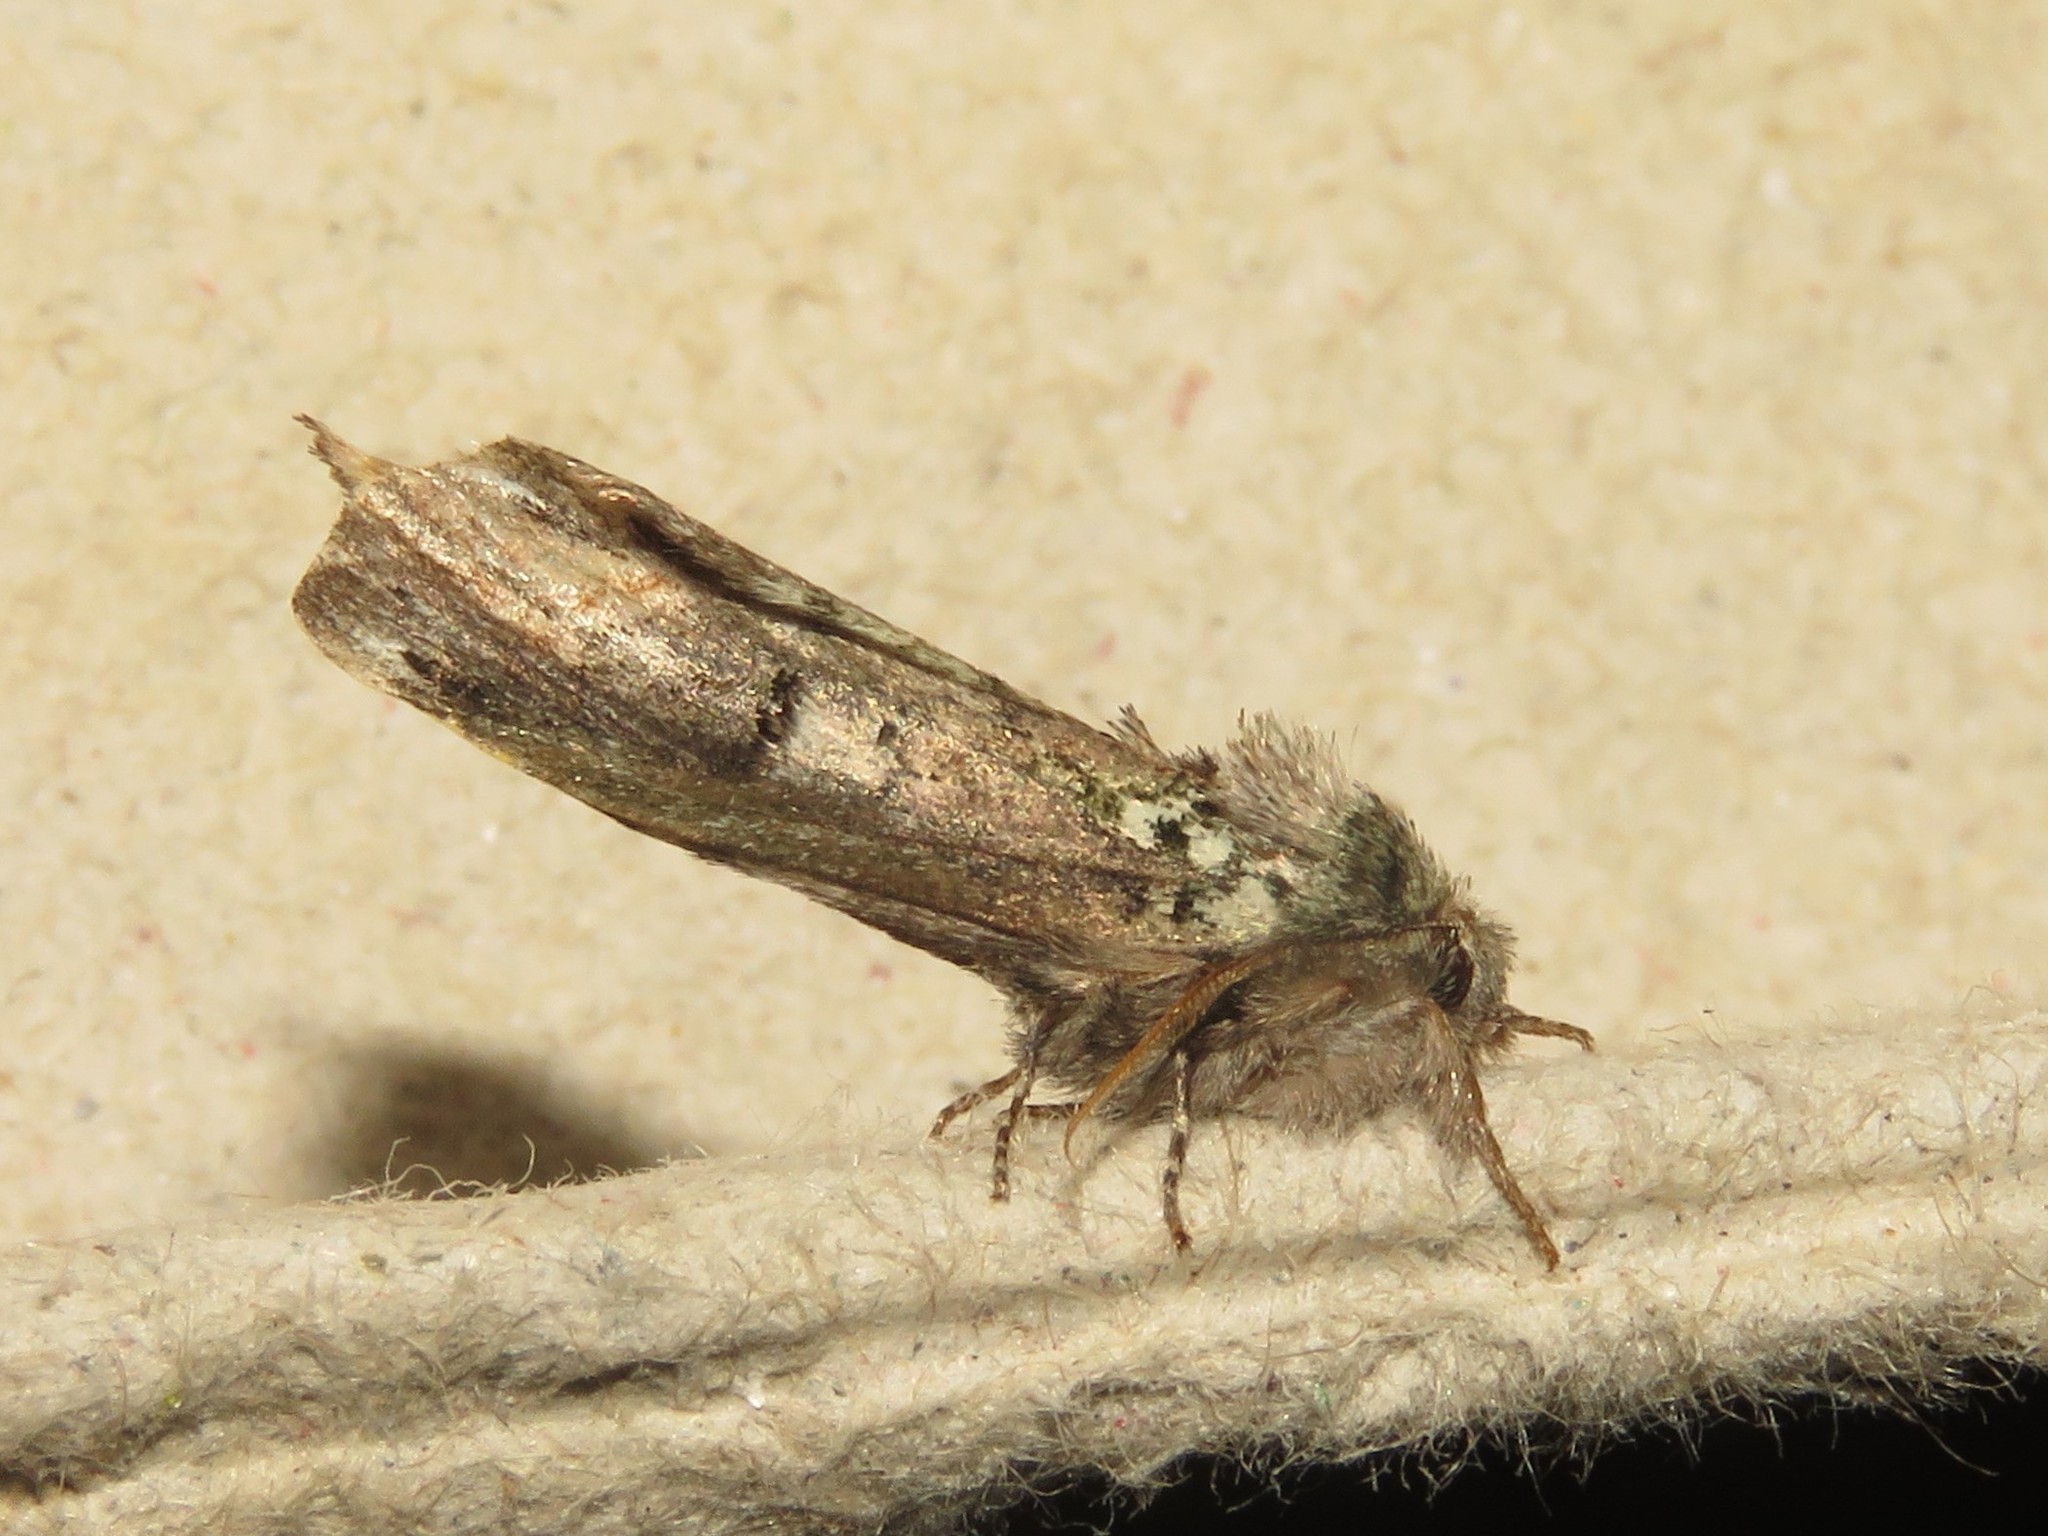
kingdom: Animalia
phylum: Arthropoda
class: Insecta
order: Lepidoptera
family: Notodontidae
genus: Schizura
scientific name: Schizura
